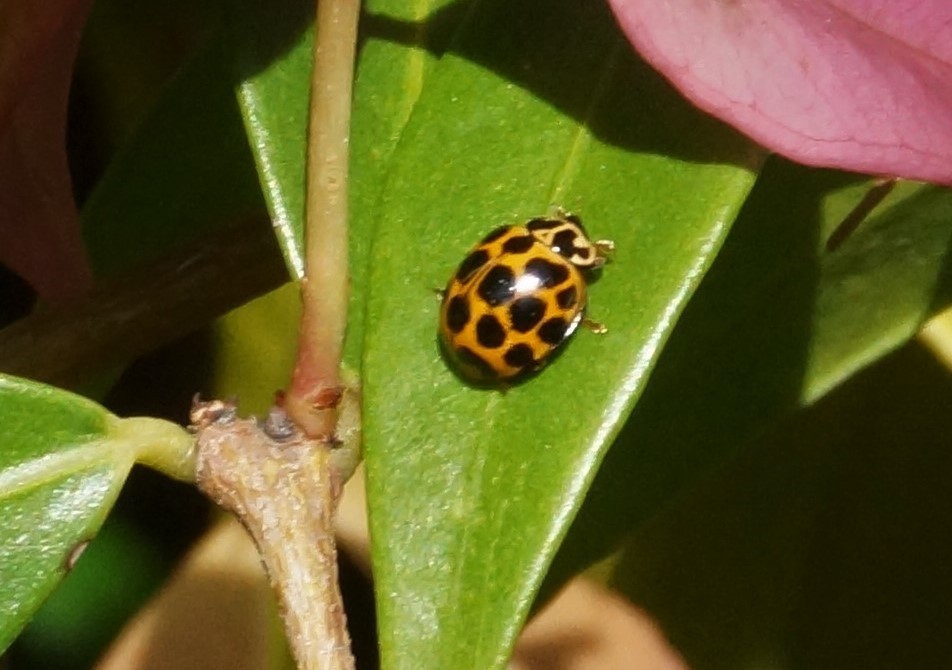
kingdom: Animalia
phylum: Arthropoda
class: Insecta
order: Coleoptera
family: Coccinellidae
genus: Harmonia
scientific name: Harmonia conformis
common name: Common spotted ladybird beetle
